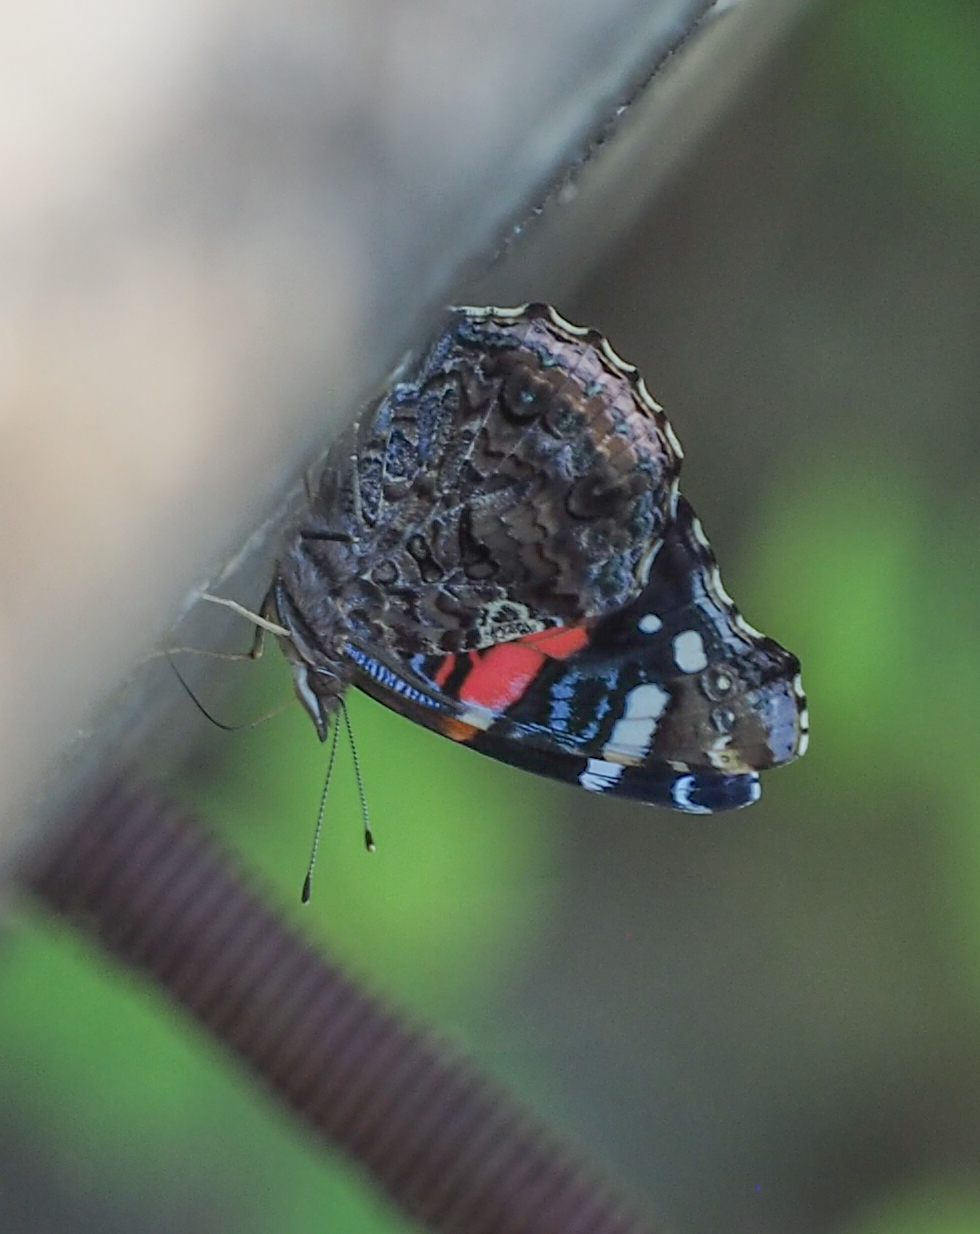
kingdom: Animalia
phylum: Arthropoda
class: Insecta
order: Lepidoptera
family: Nymphalidae
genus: Vanessa
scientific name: Vanessa atalanta
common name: Red admiral
